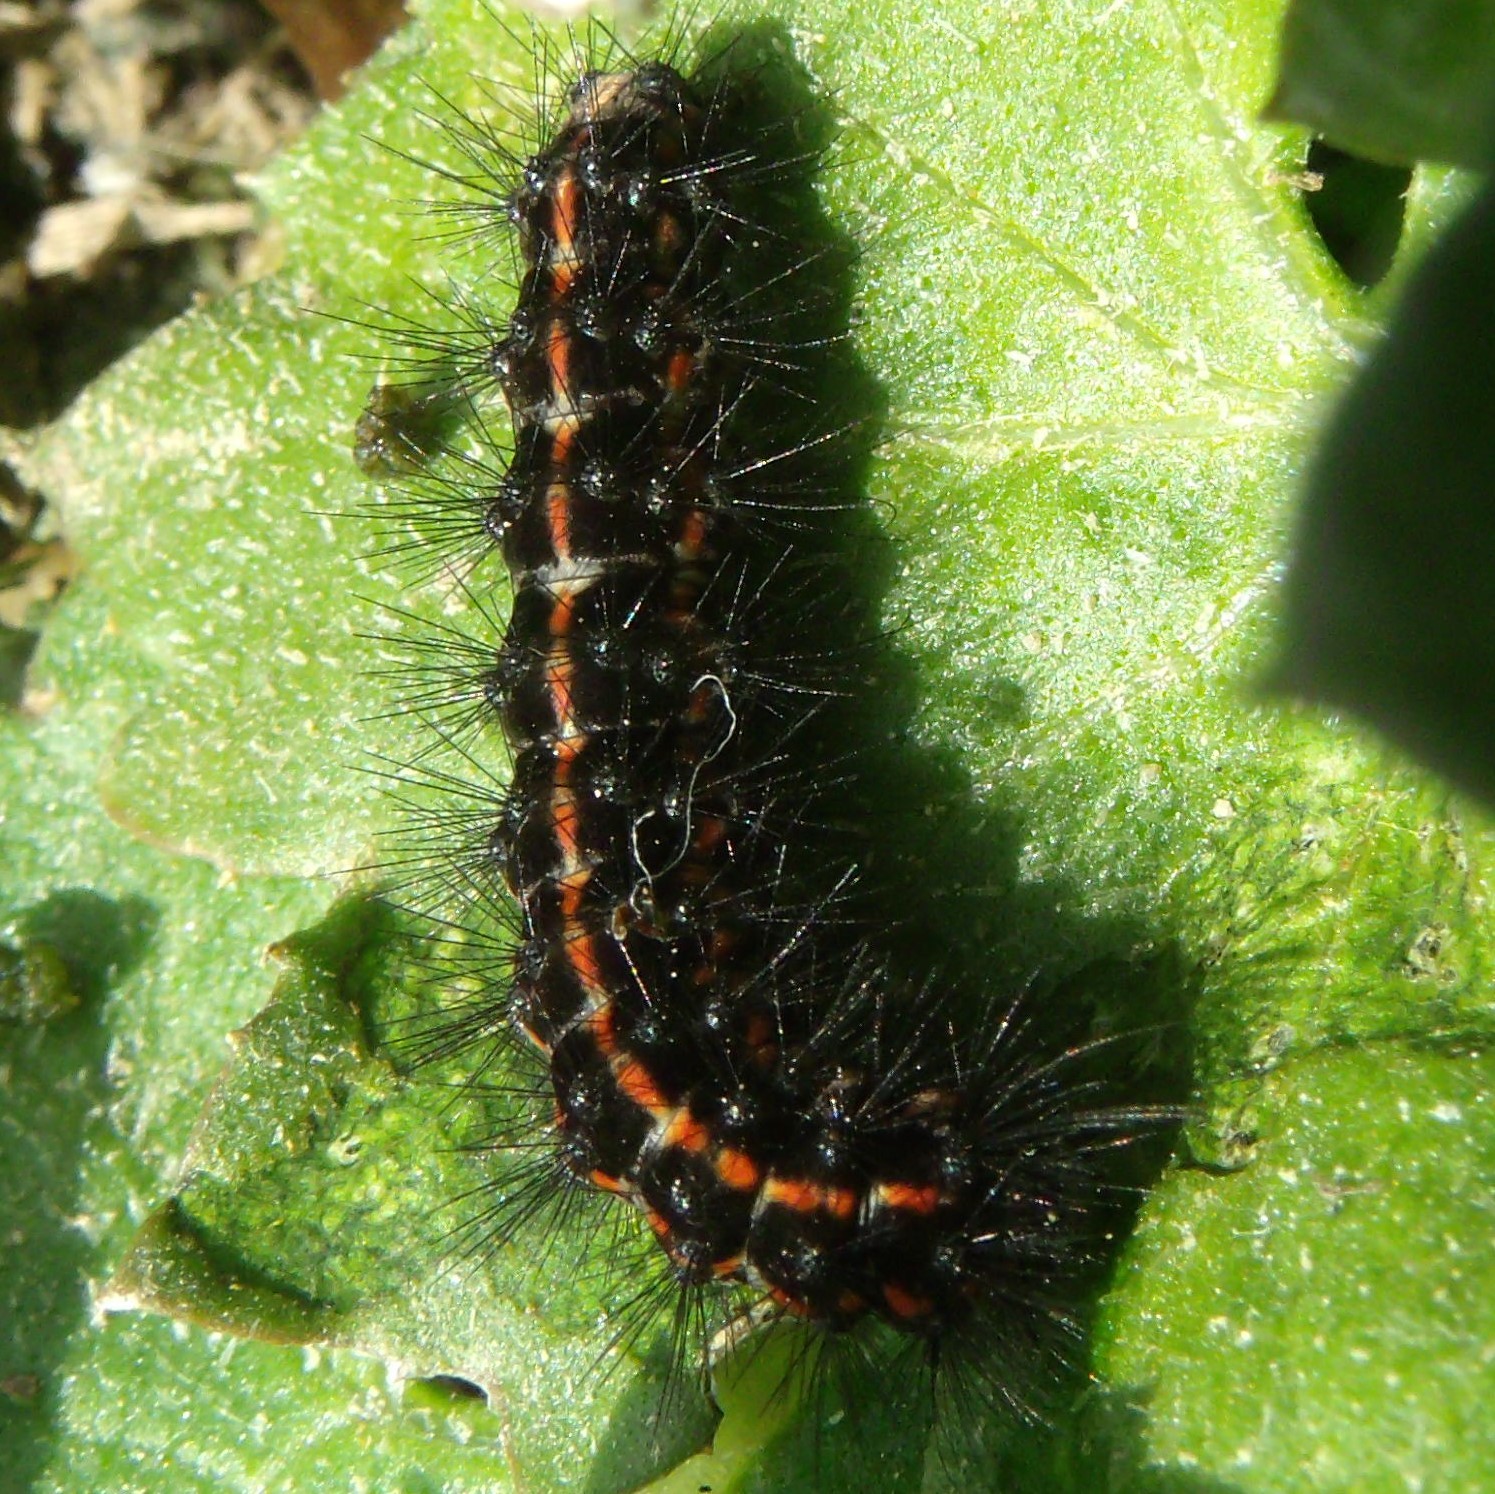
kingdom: Animalia
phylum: Arthropoda
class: Insecta
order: Lepidoptera
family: Erebidae
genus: Nyctemera
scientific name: Nyctemera annulatum
